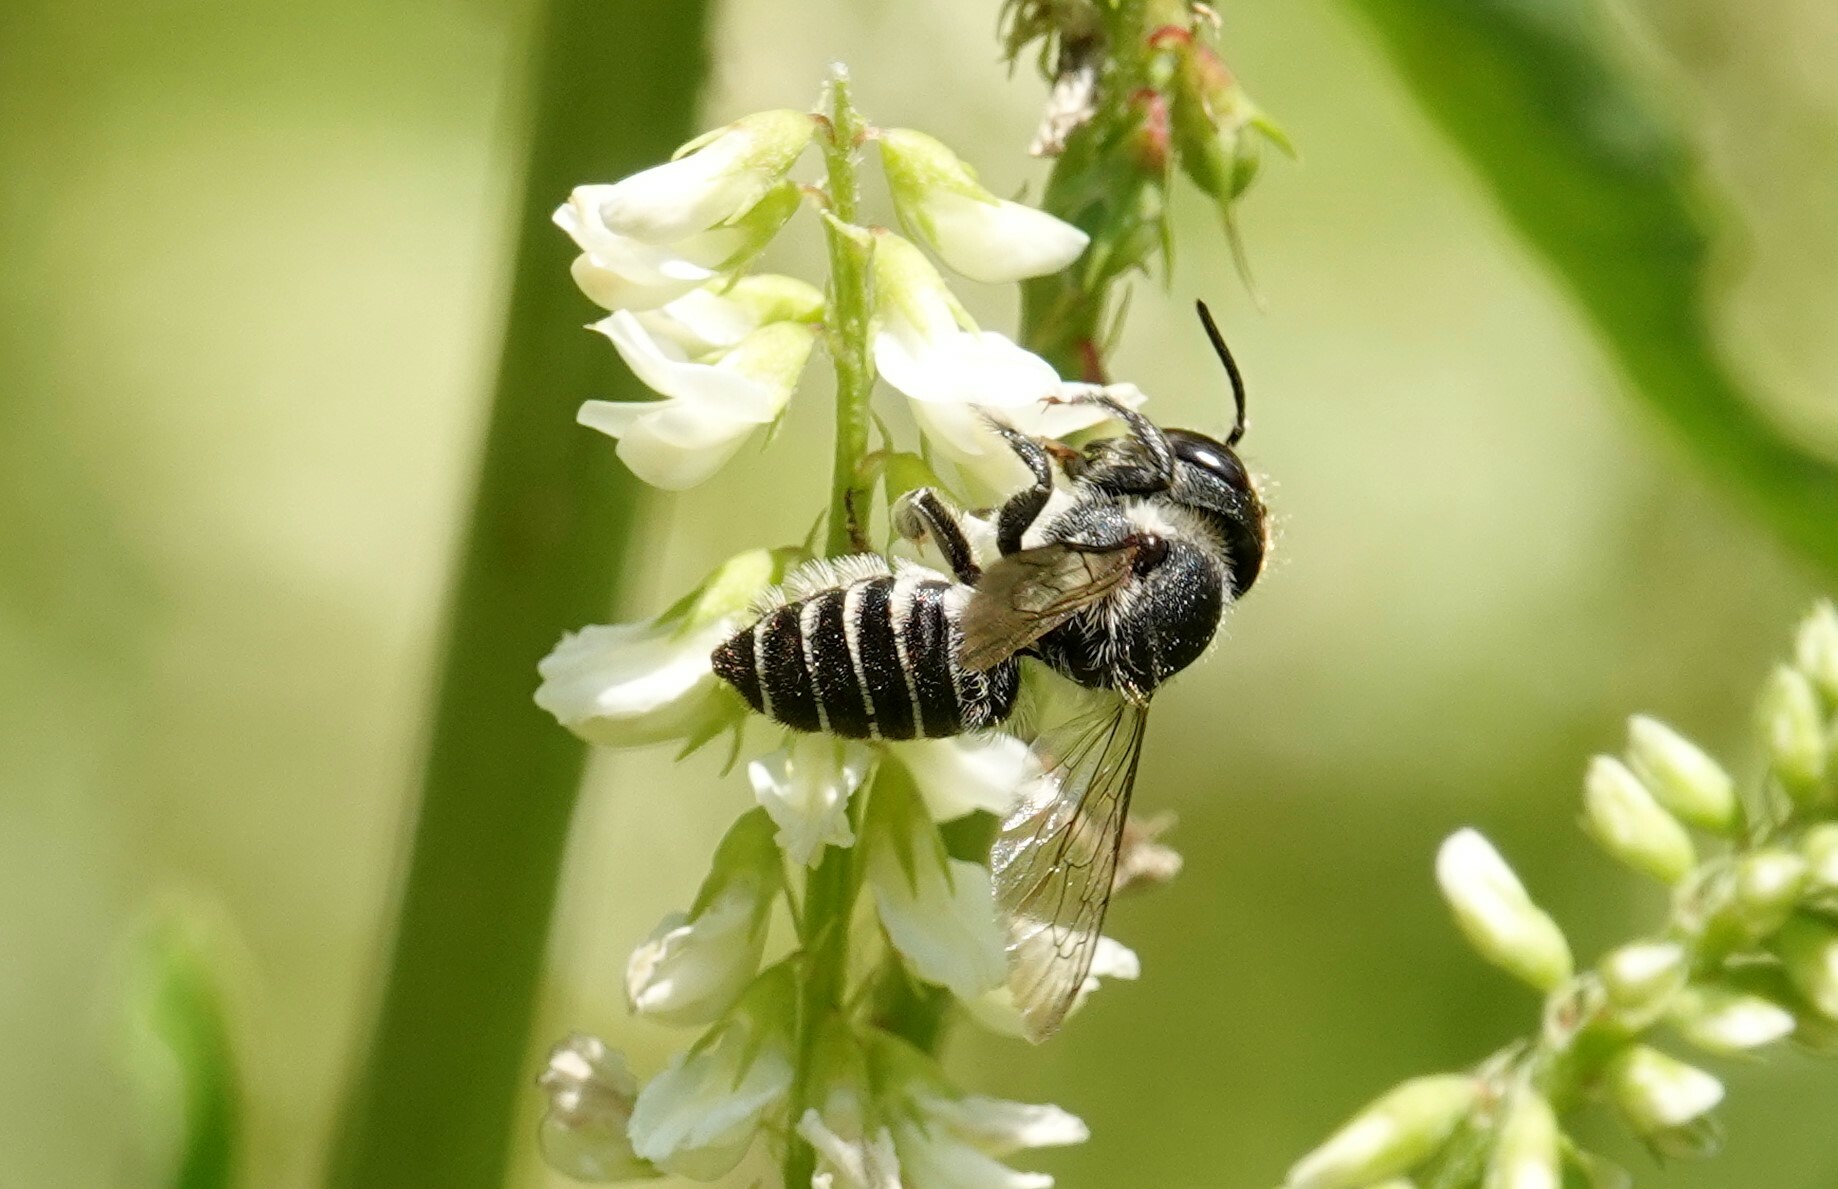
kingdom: Animalia
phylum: Arthropoda
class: Insecta
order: Hymenoptera
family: Megachilidae
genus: Megachile
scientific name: Megachile rotundata
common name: Alfalfa leafcutting bee
